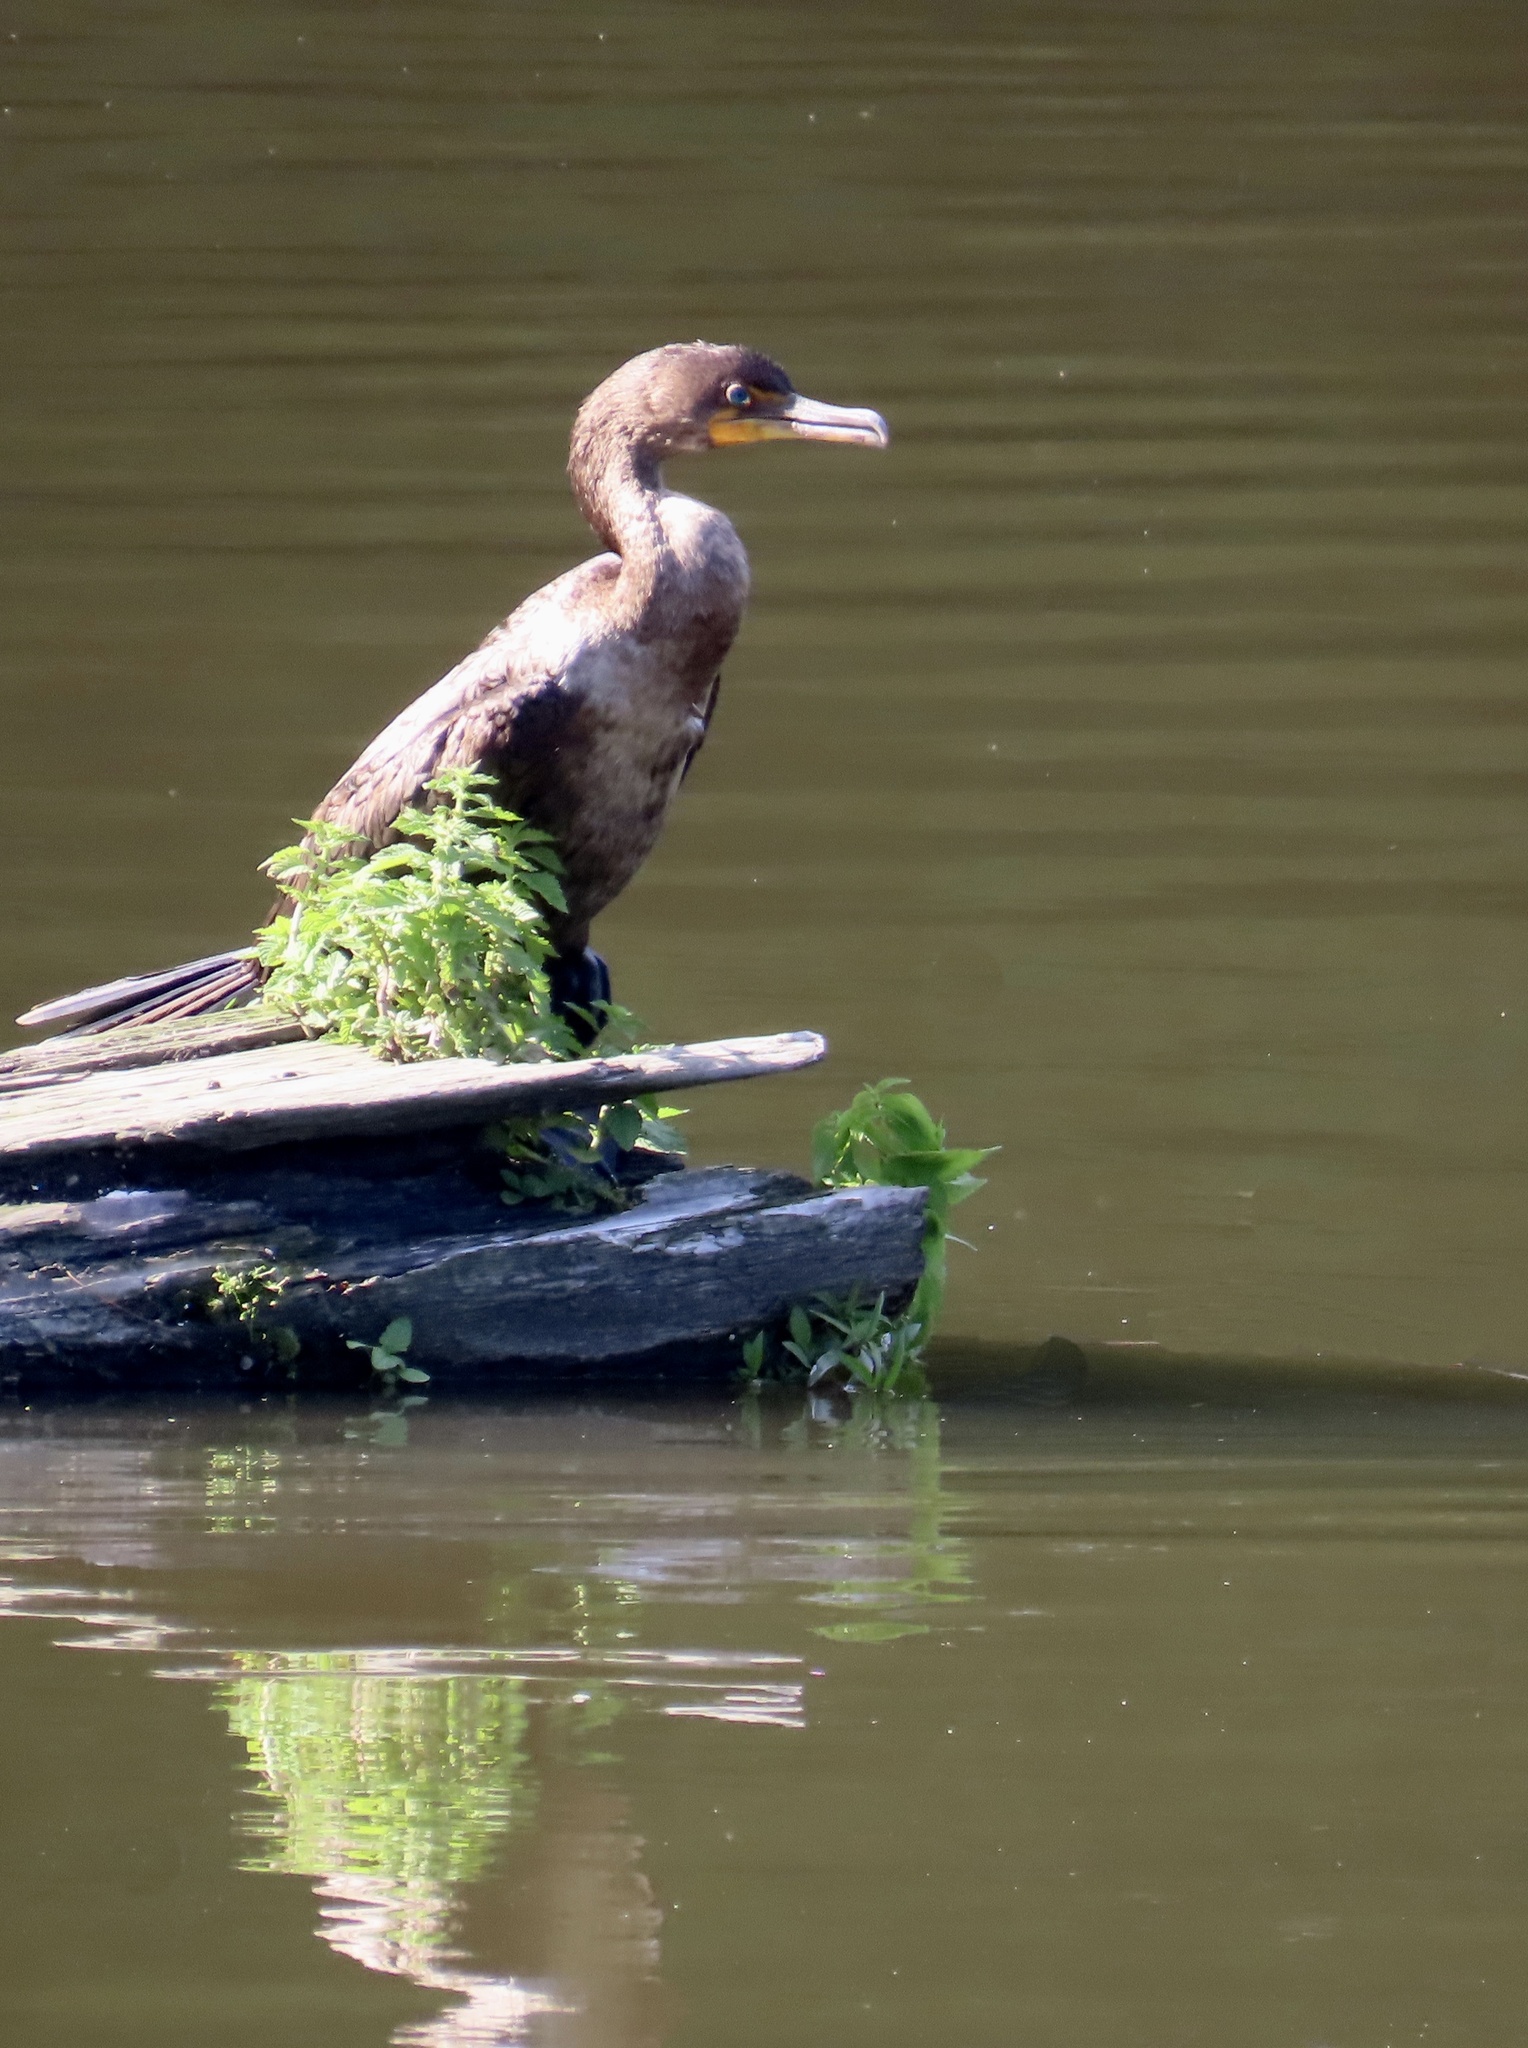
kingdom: Animalia
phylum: Chordata
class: Aves
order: Suliformes
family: Phalacrocoracidae
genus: Phalacrocorax
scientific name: Phalacrocorax auritus
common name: Double-crested cormorant
